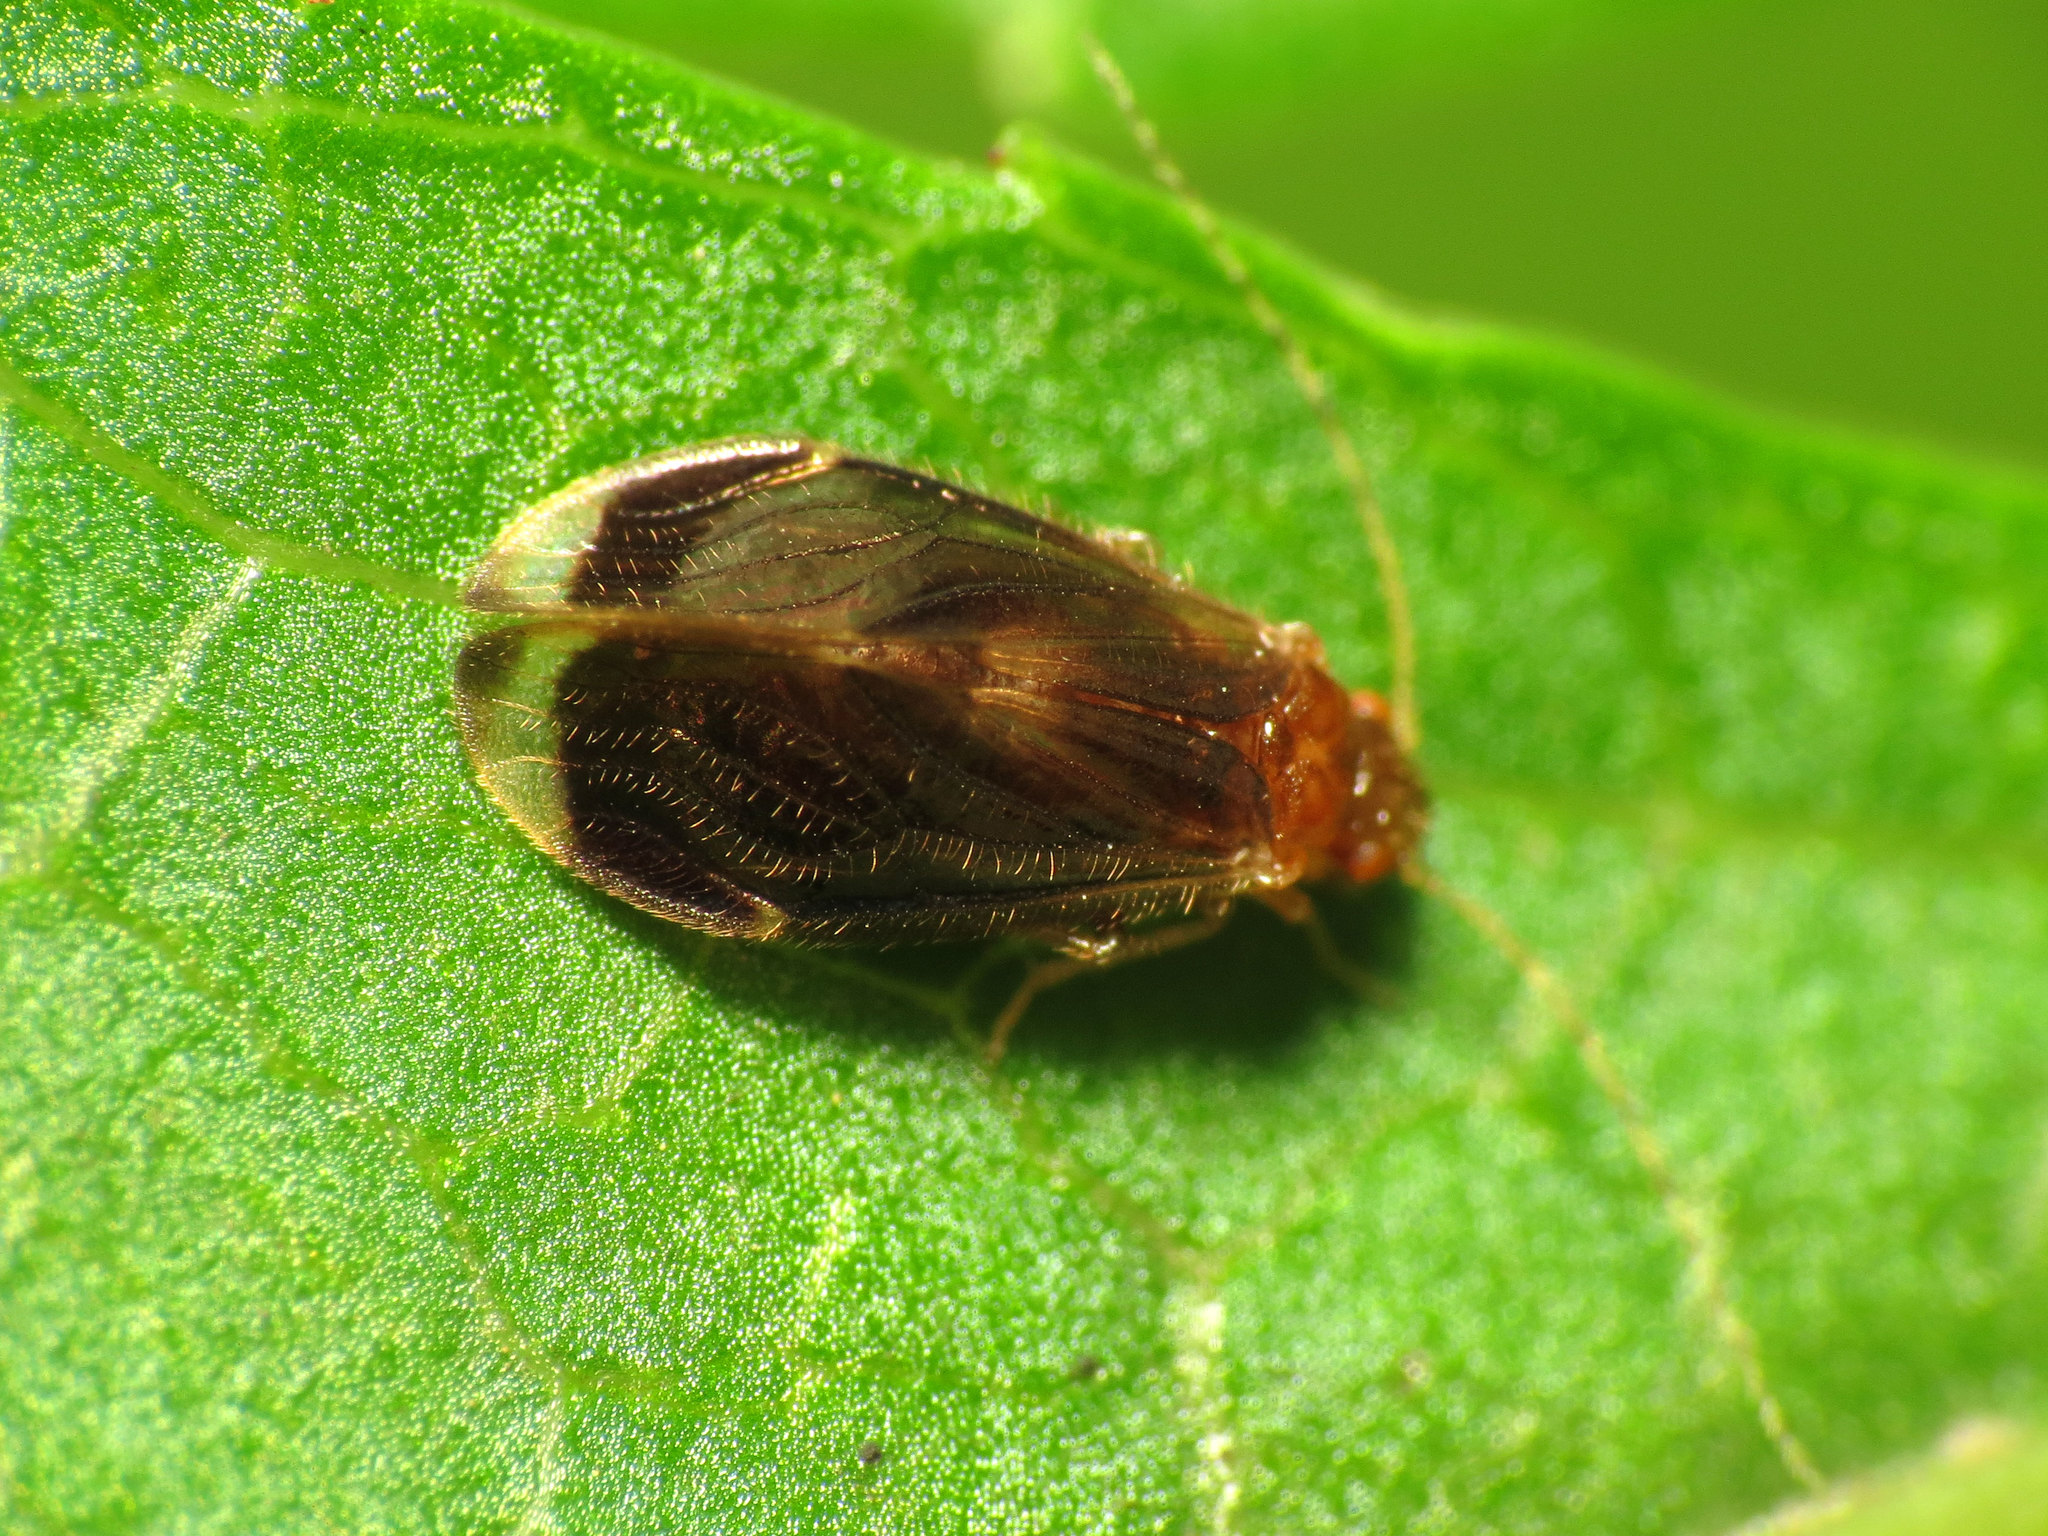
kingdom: Animalia
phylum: Arthropoda
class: Insecta
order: Psocodea
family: Amphipsocidae
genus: Polypsocus
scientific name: Polypsocus corruptus
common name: Corrupt barklouse
